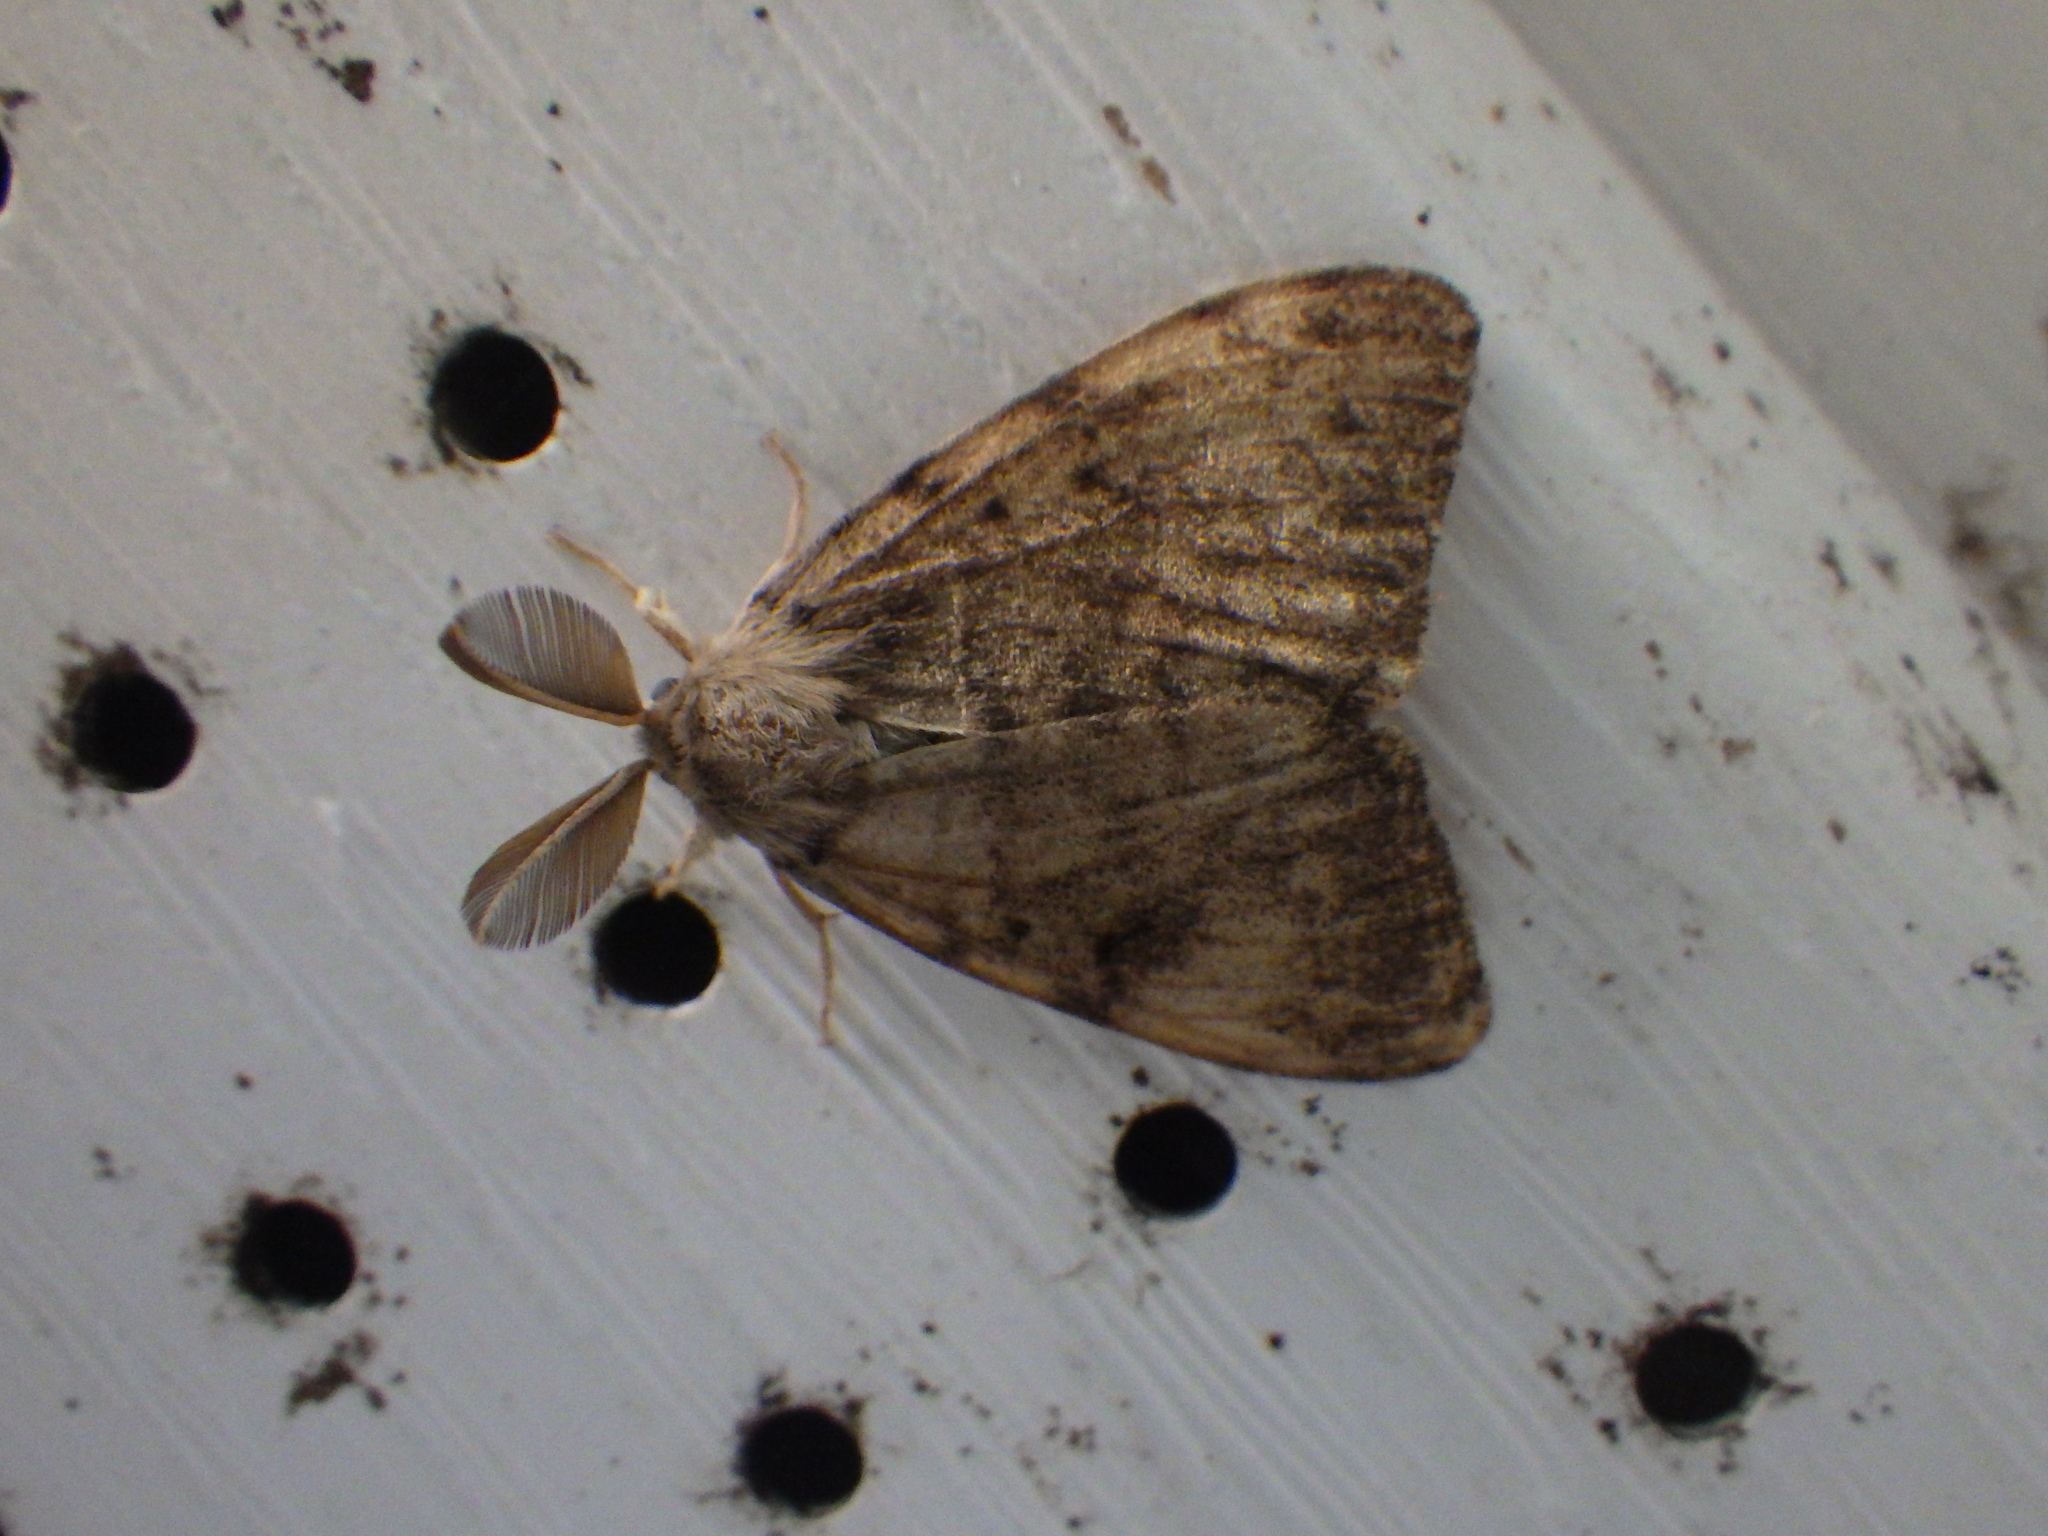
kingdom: Animalia
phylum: Arthropoda
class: Insecta
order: Lepidoptera
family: Erebidae
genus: Lymantria
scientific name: Lymantria dispar
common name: Gypsy moth
